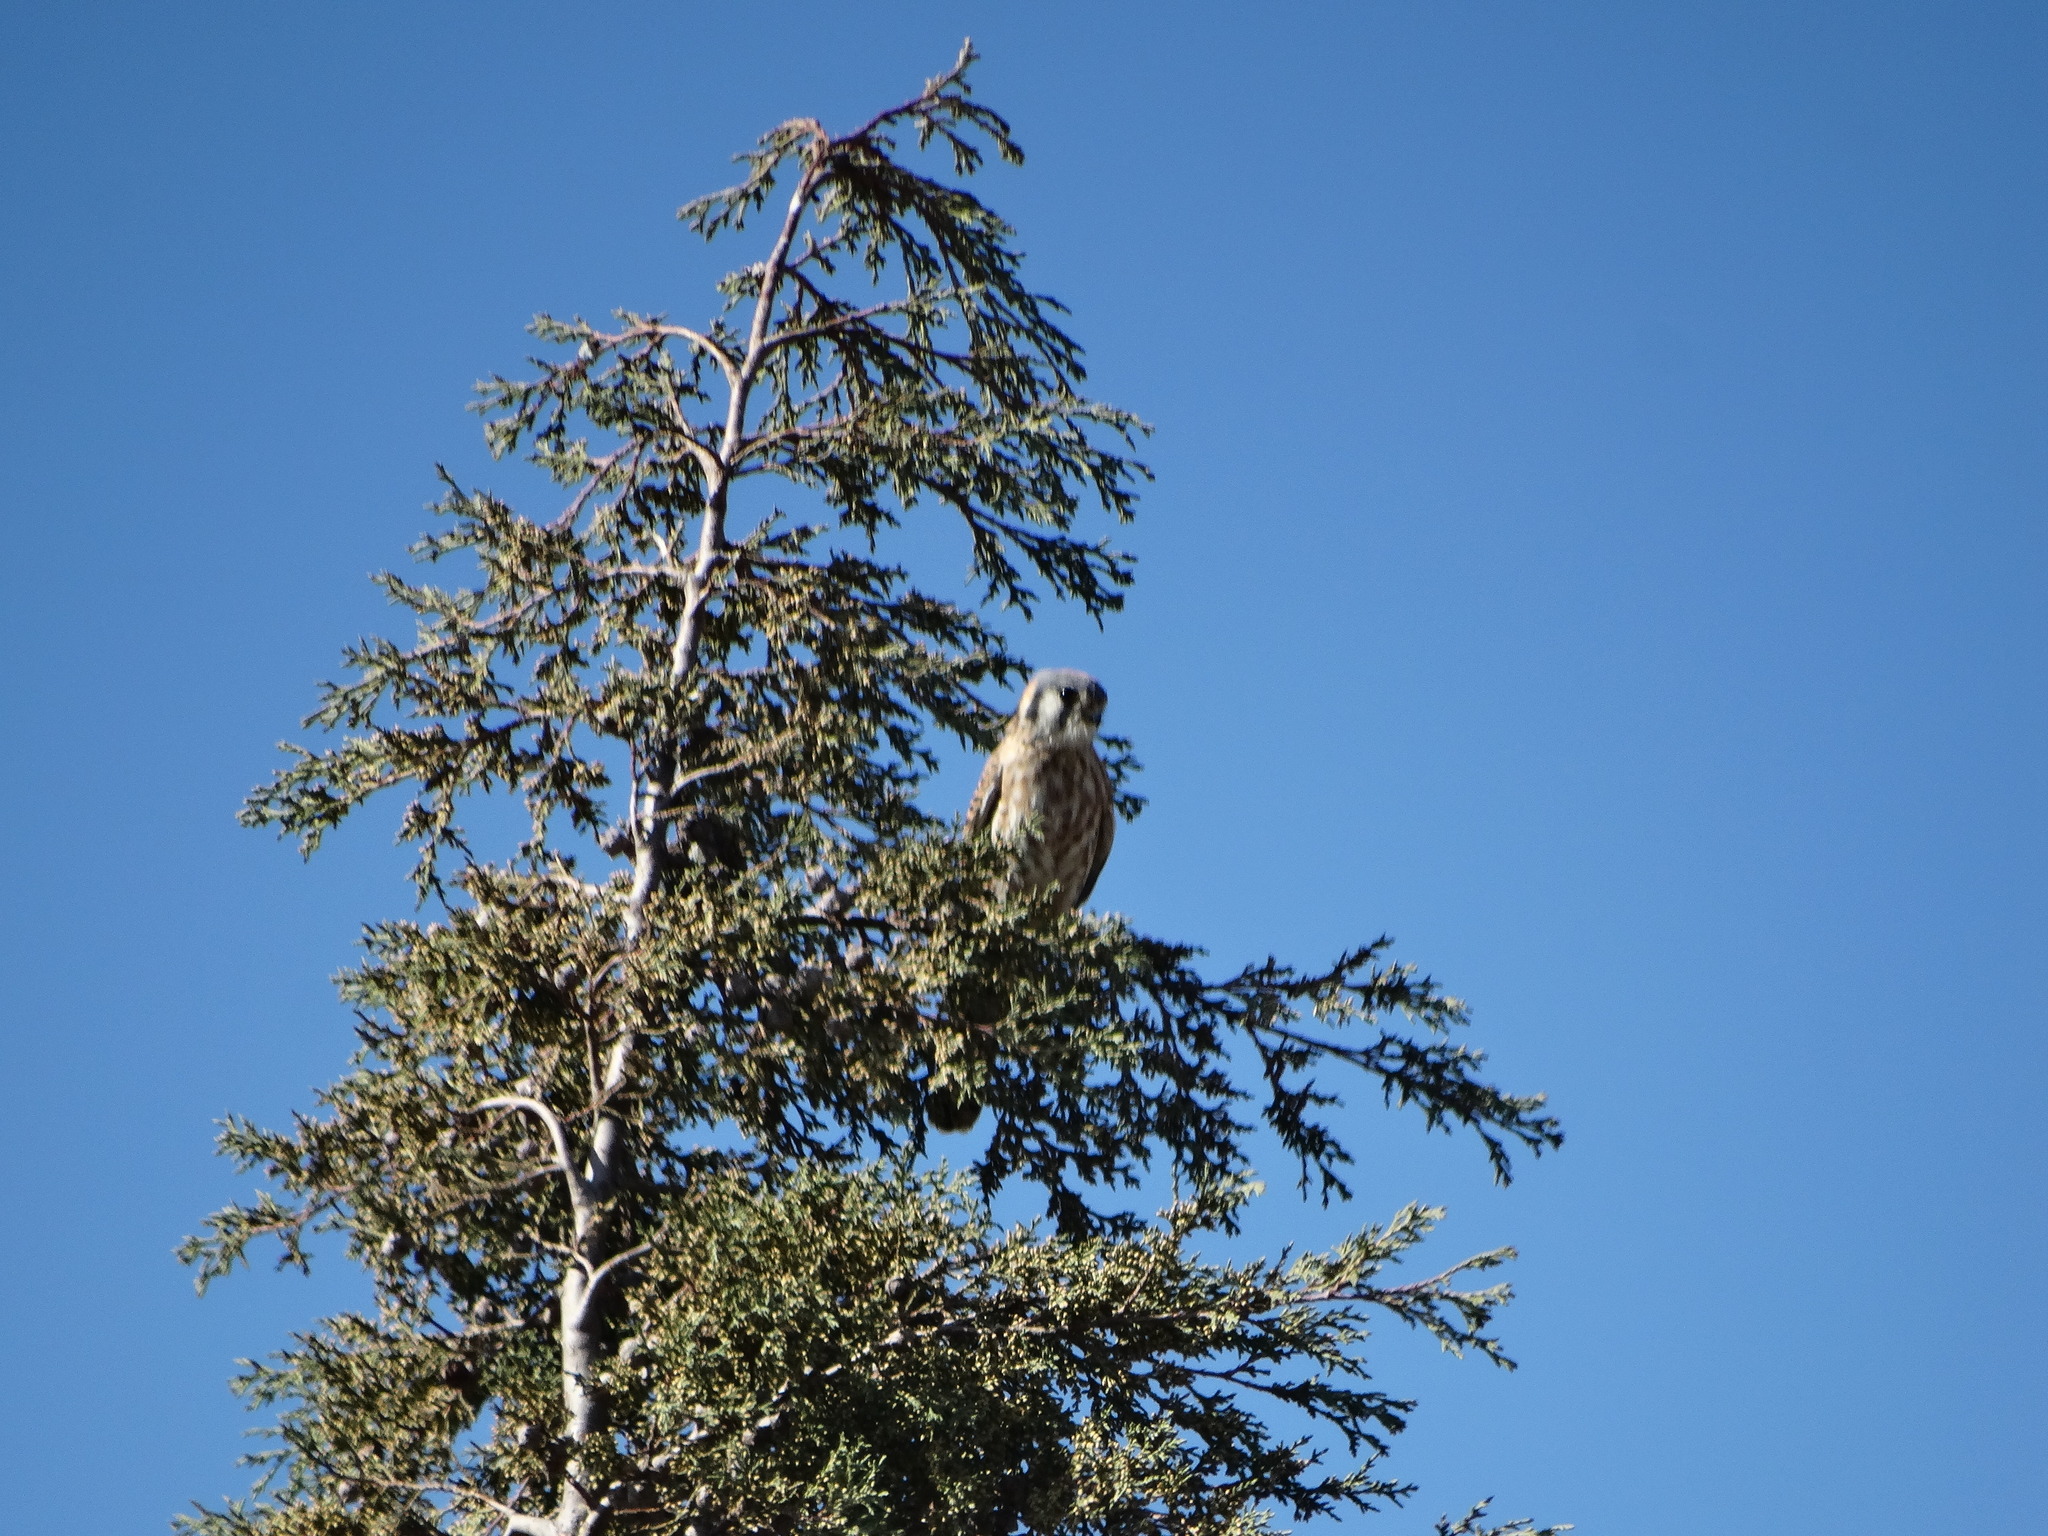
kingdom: Animalia
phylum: Chordata
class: Aves
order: Falconiformes
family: Falconidae
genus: Falco
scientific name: Falco sparverius
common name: American kestrel
